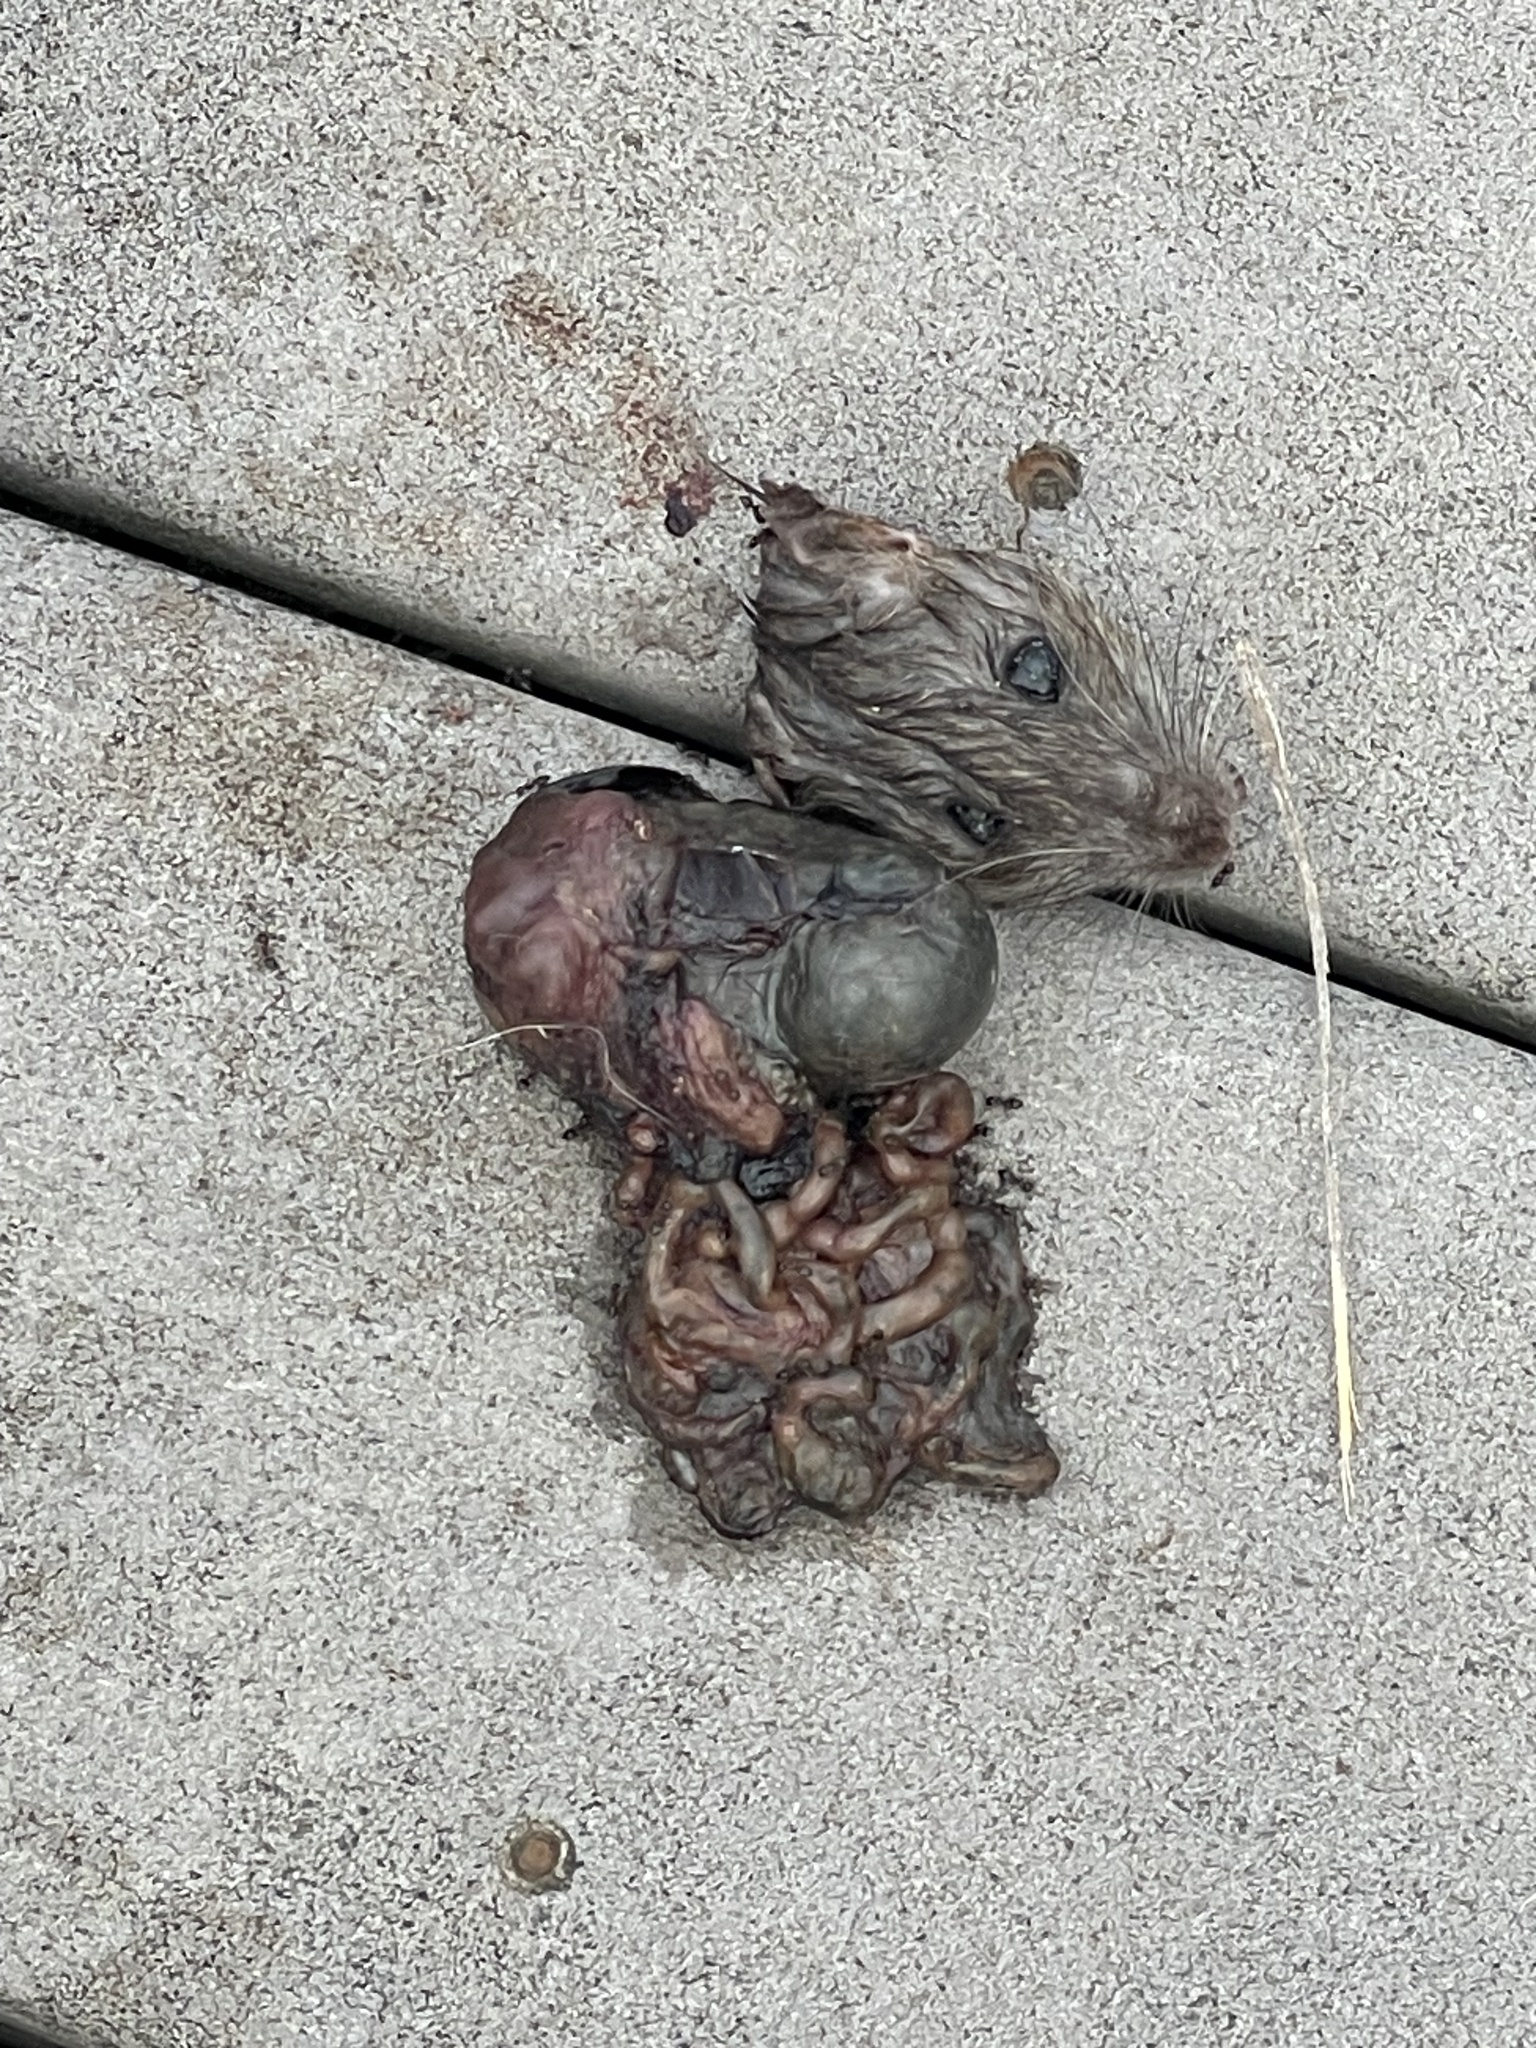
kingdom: Animalia
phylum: Chordata
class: Mammalia
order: Rodentia
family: Muridae
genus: Rattus
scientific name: Rattus norvegicus
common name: Brown rat
